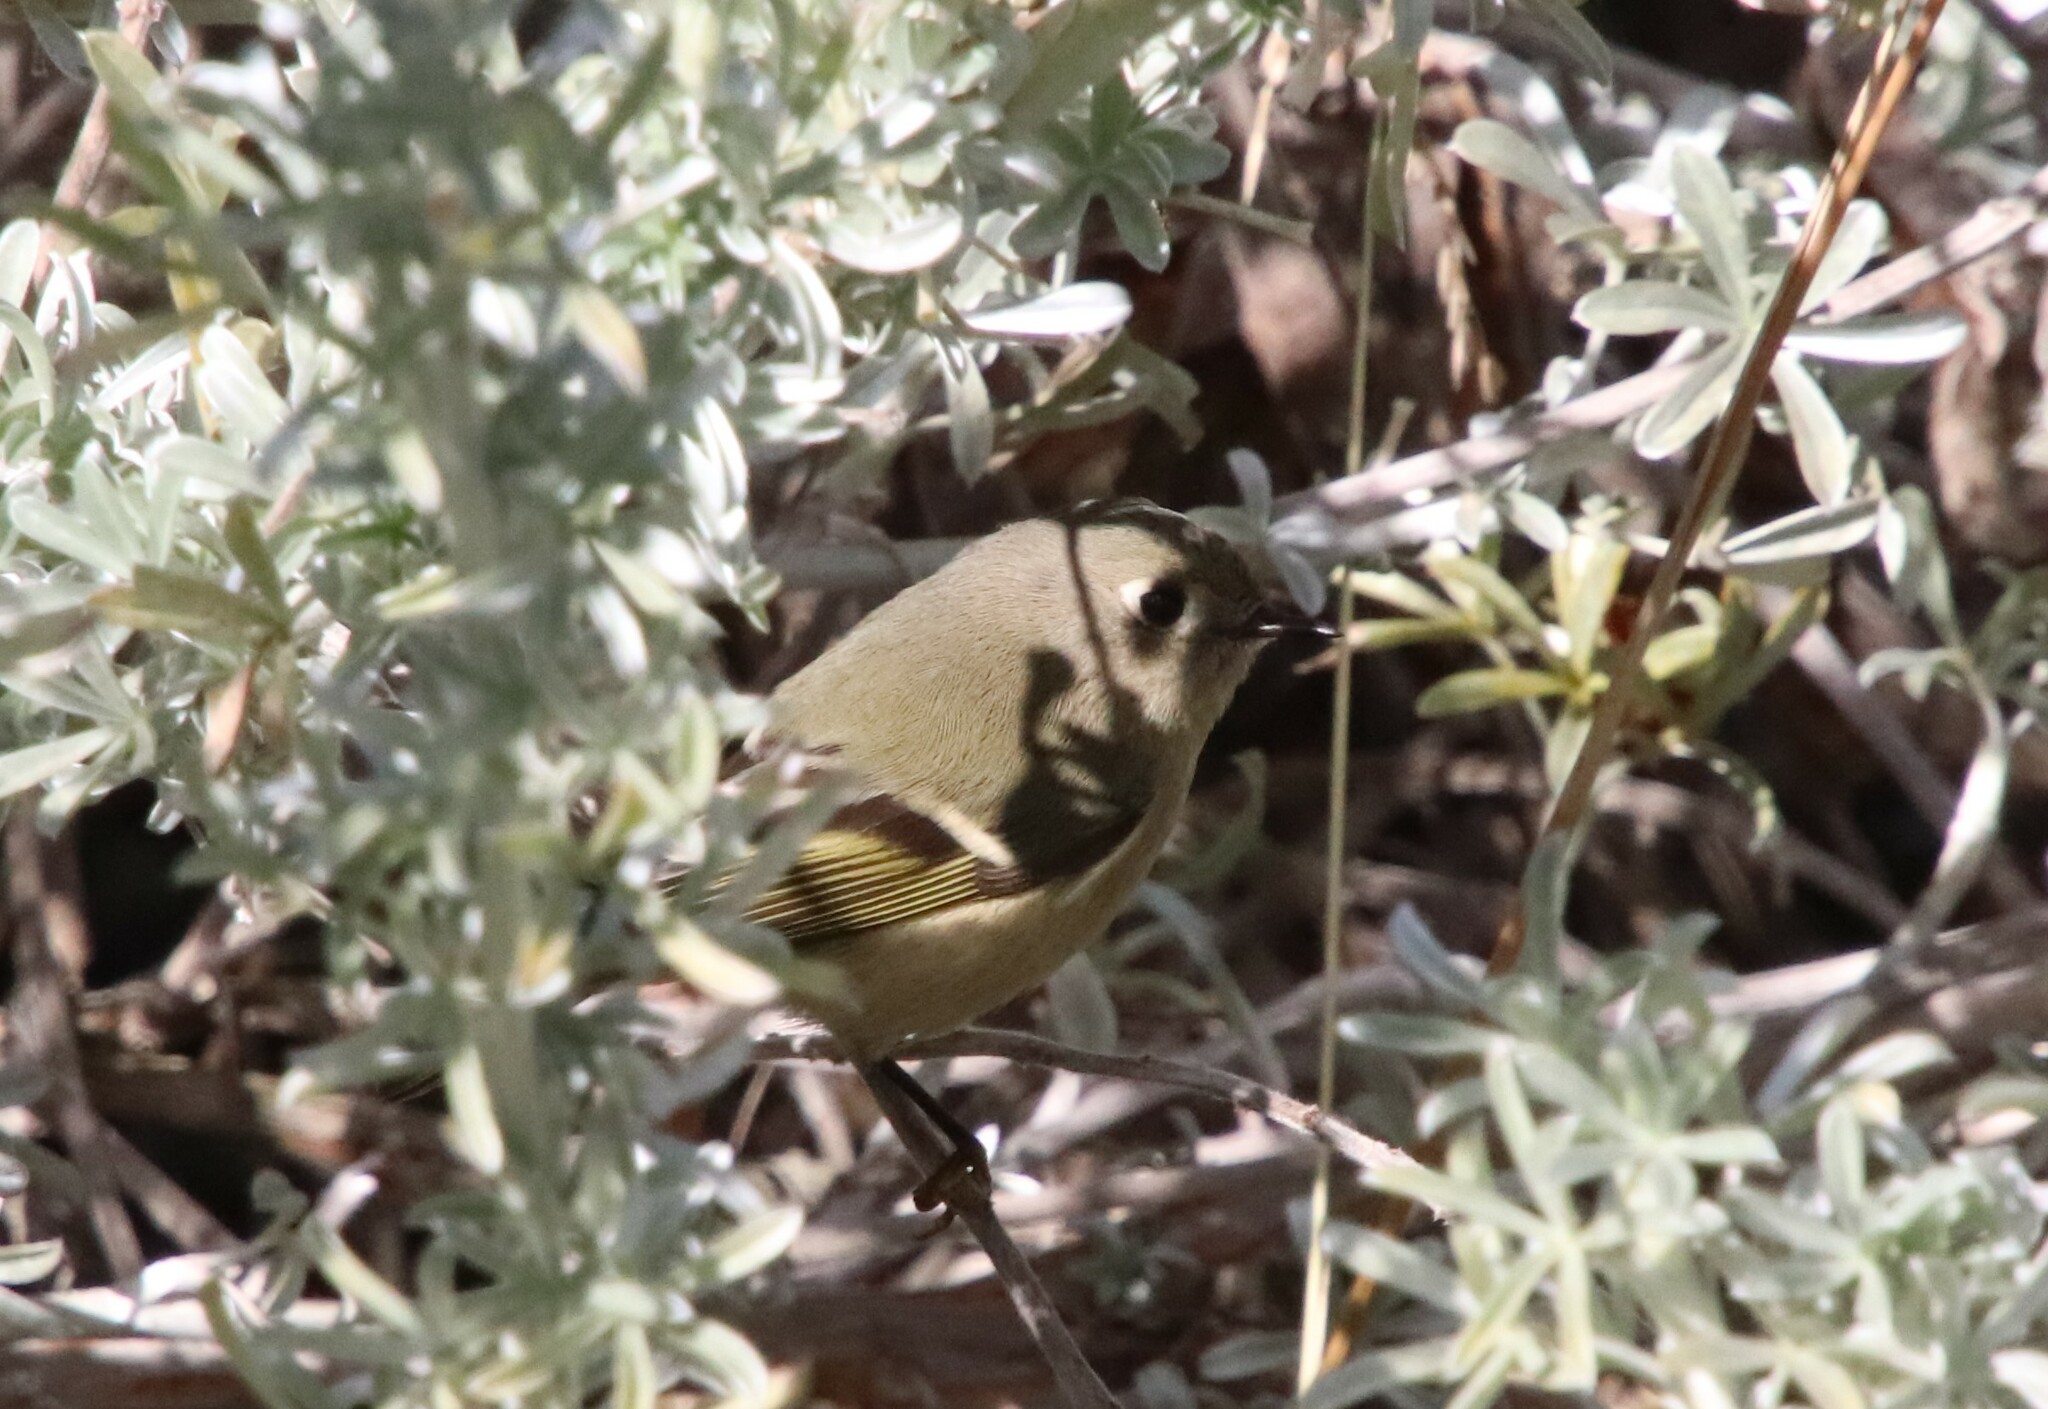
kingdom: Animalia
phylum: Chordata
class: Aves
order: Passeriformes
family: Regulidae
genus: Regulus
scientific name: Regulus calendula
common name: Ruby-crowned kinglet
